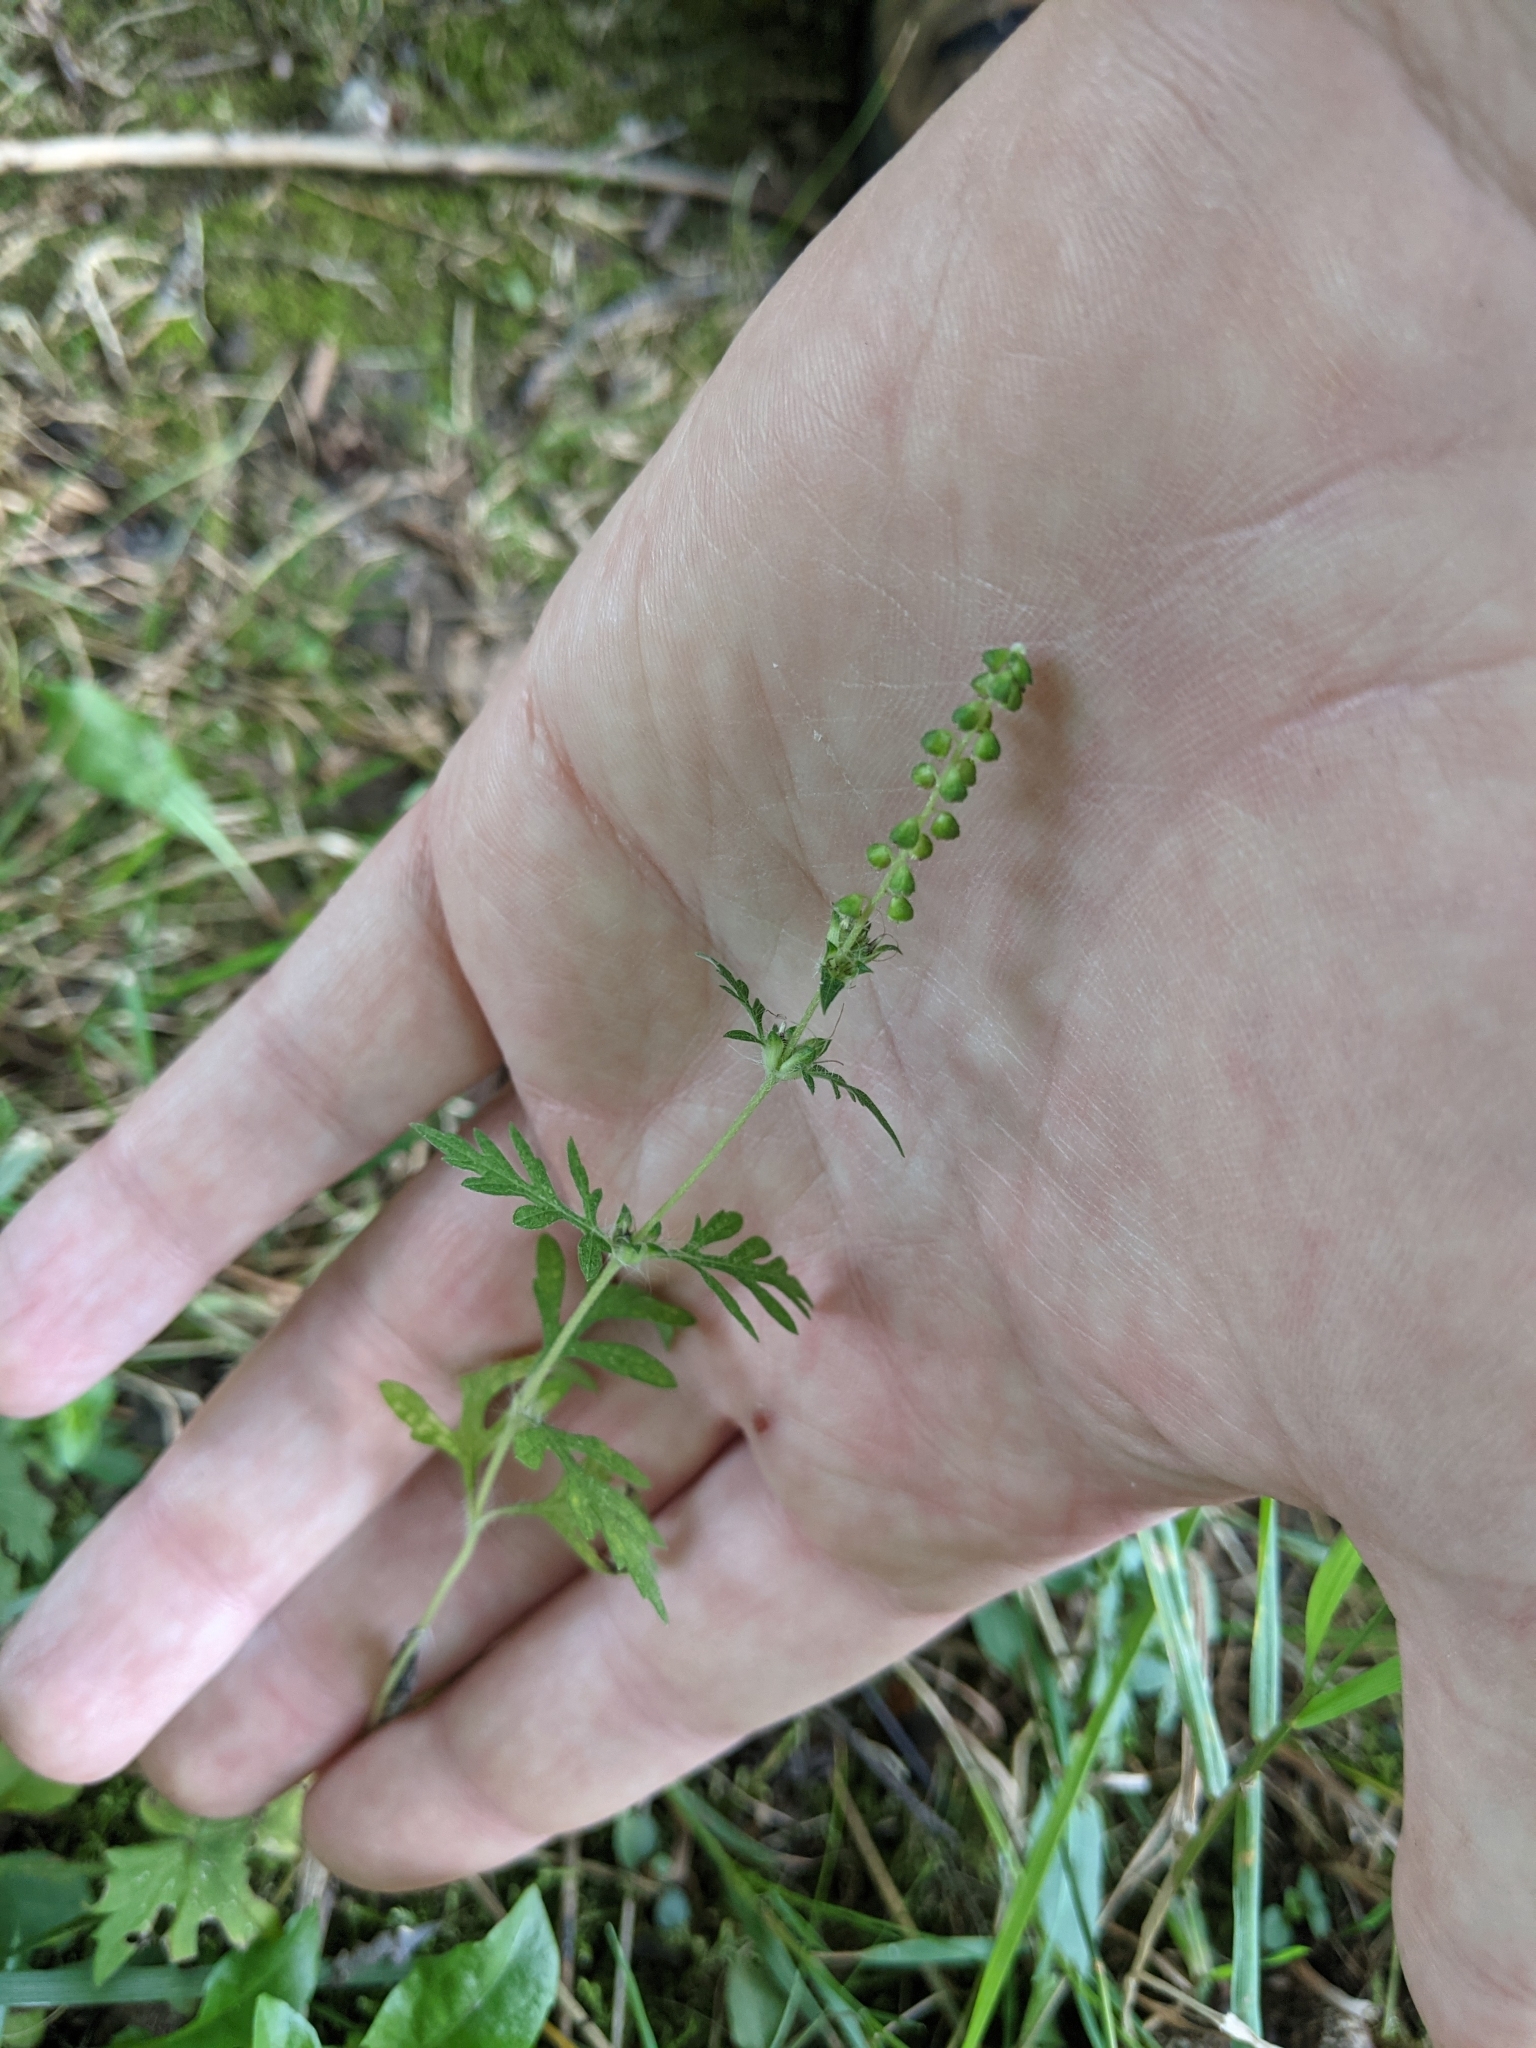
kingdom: Plantae
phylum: Tracheophyta
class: Magnoliopsida
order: Asterales
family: Asteraceae
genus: Ambrosia
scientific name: Ambrosia artemisiifolia
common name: Annual ragweed
